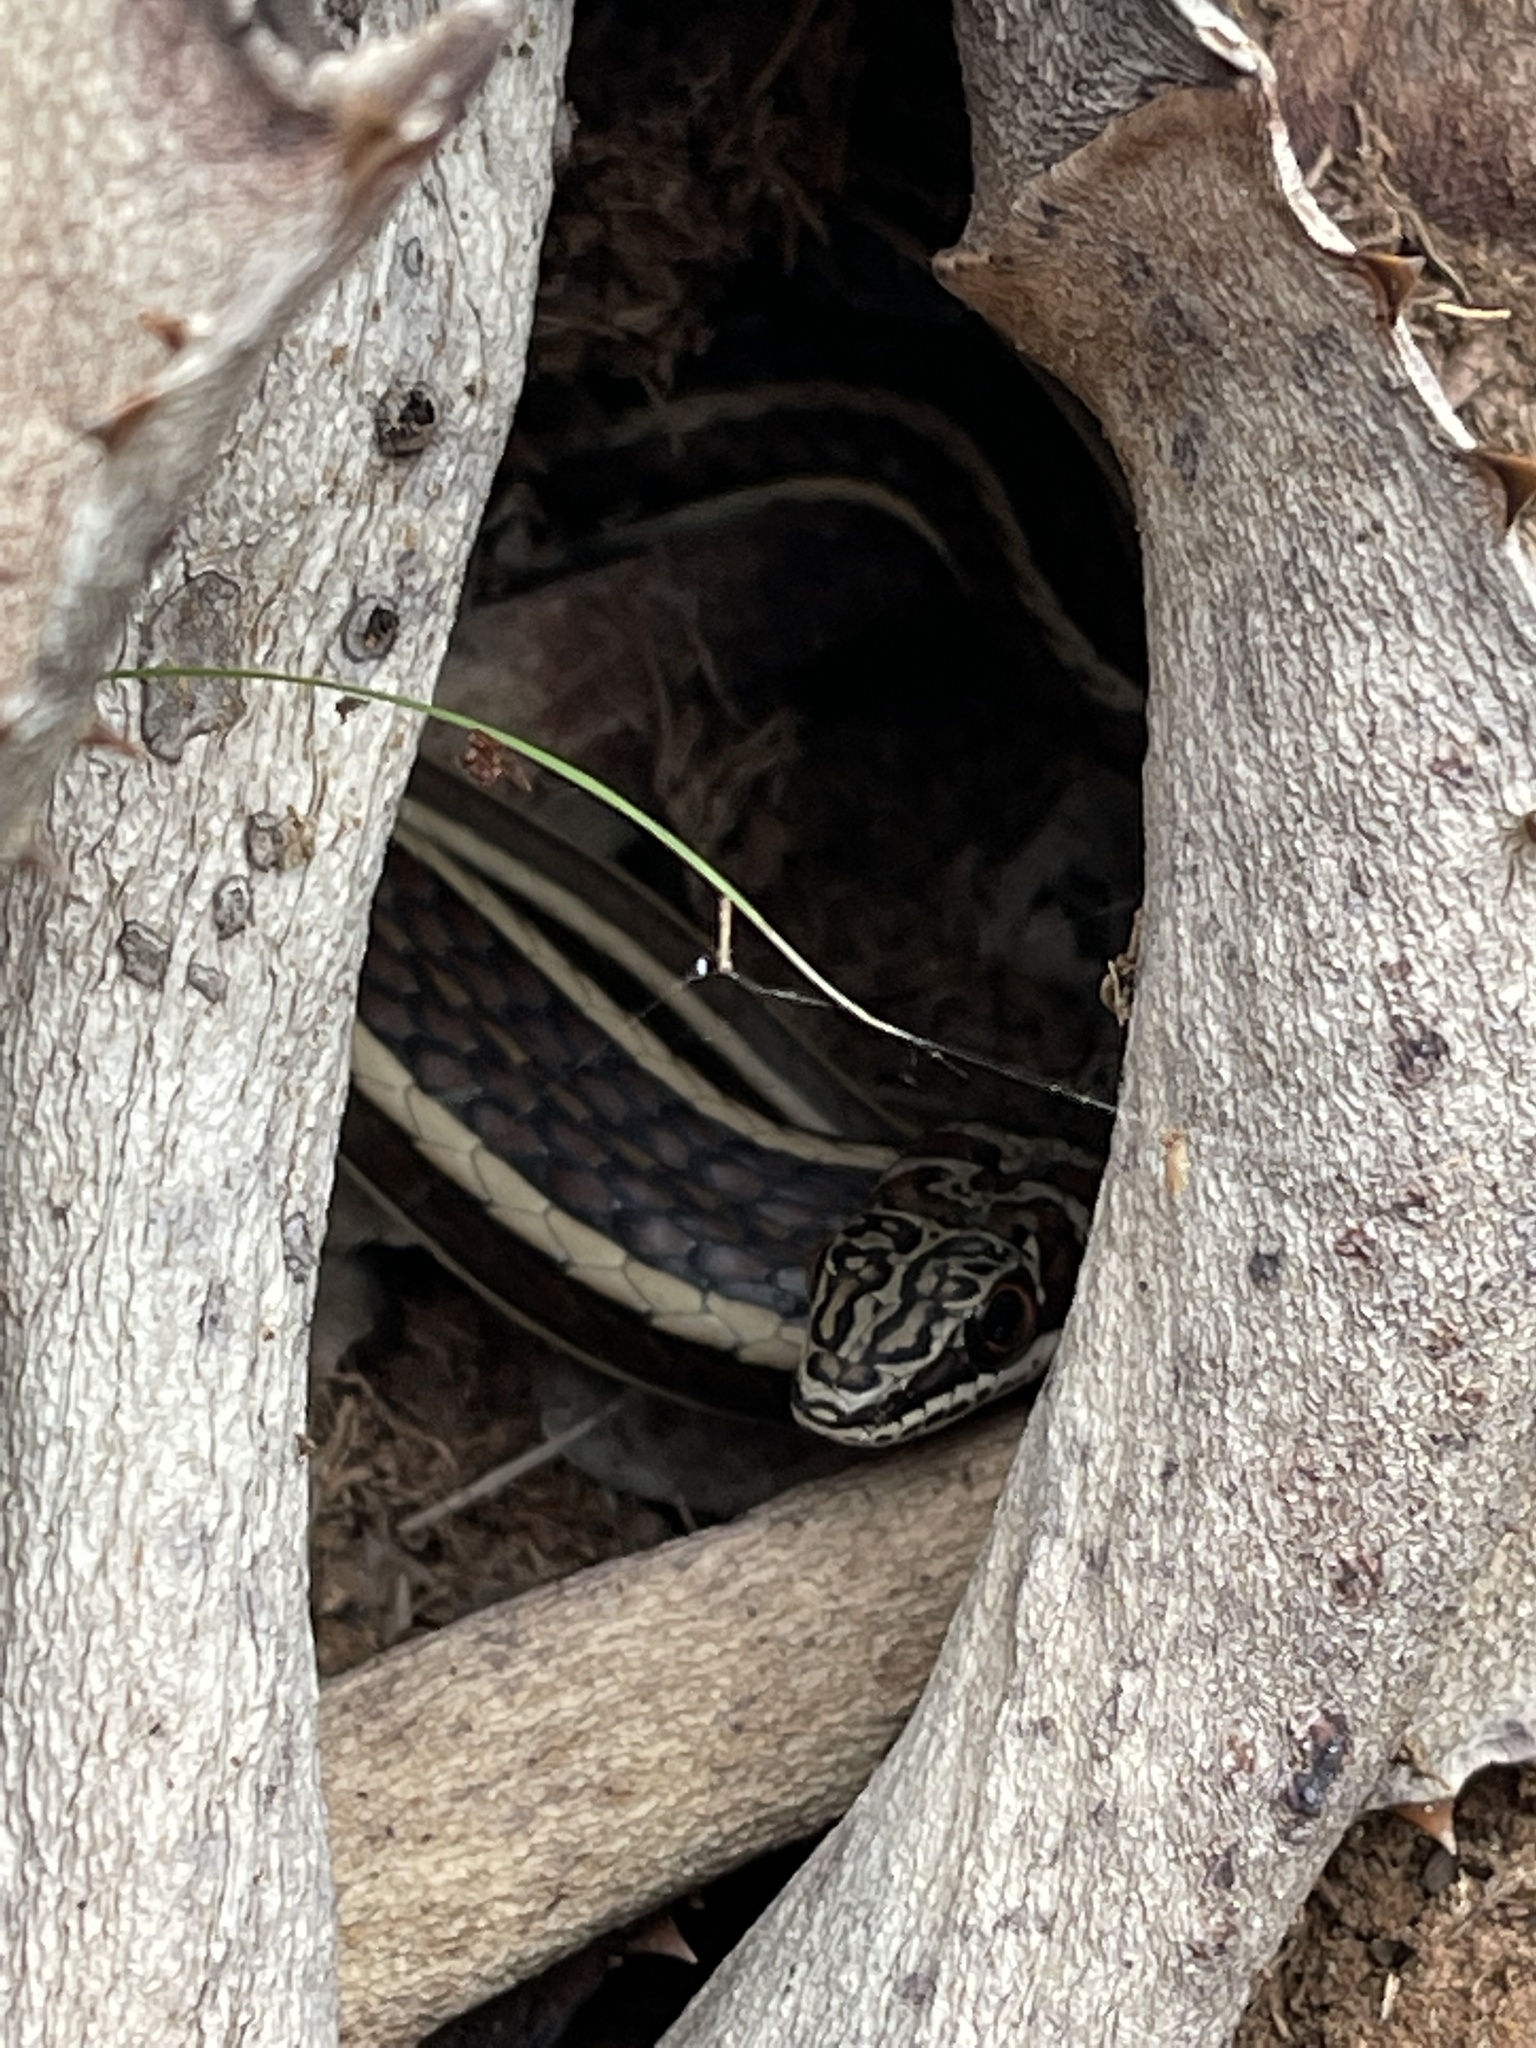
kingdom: Animalia
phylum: Chordata
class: Squamata
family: Psammophiidae
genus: Psammophis
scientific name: Psammophis subtaeniatus
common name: Stripe-bellied sand snake
